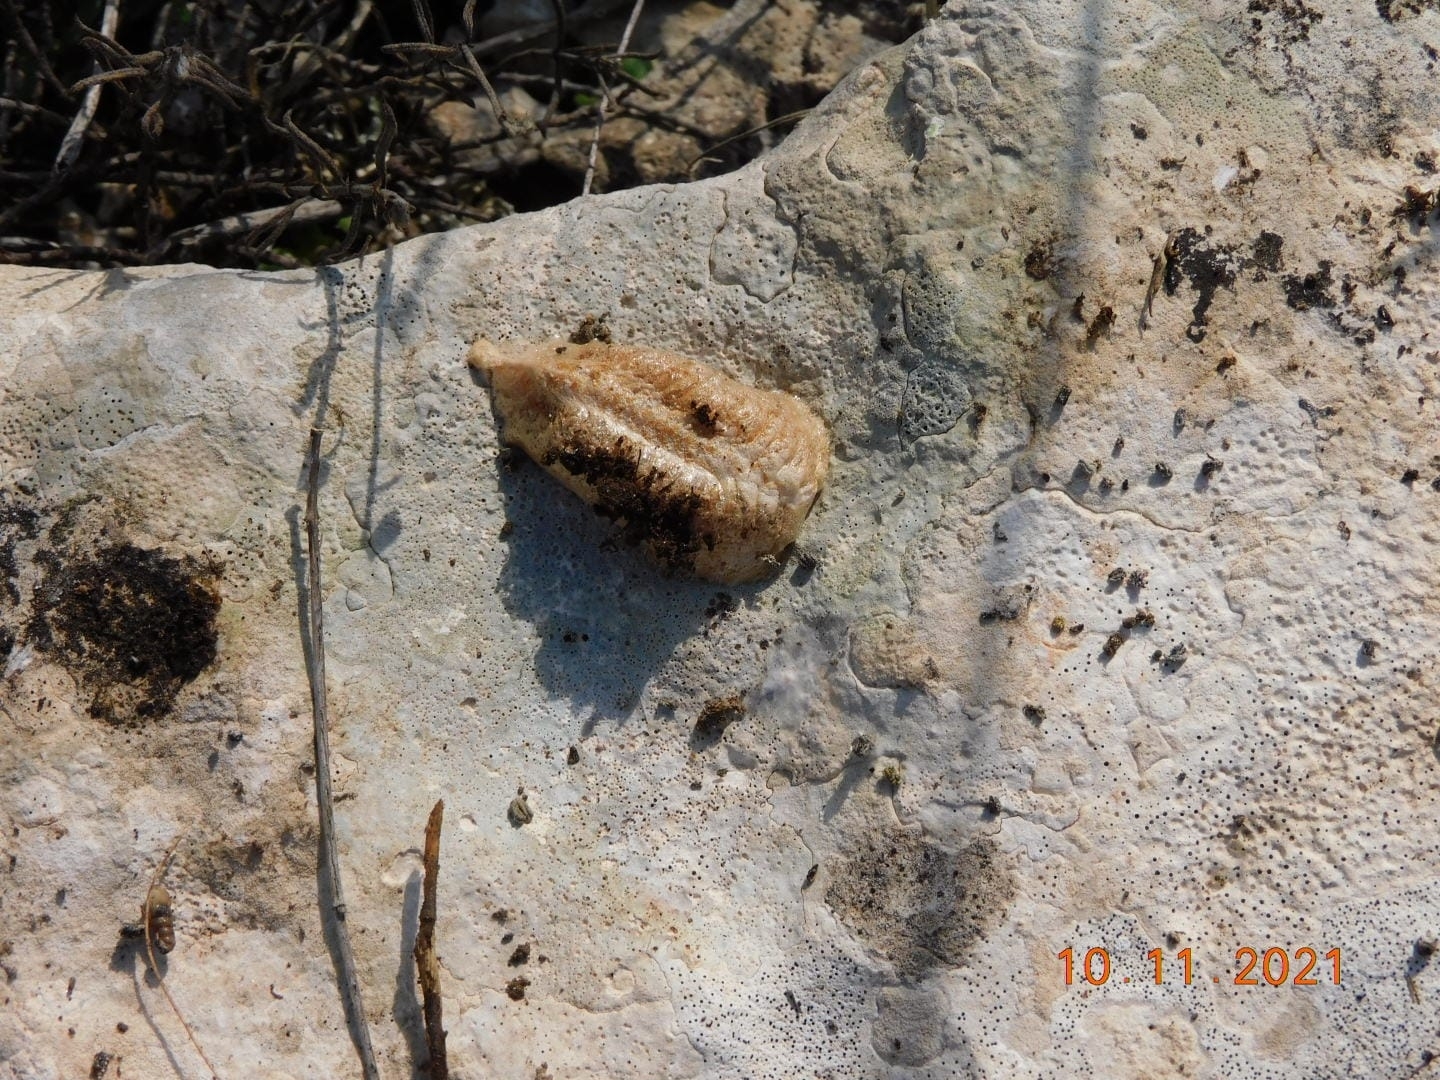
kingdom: Animalia
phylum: Arthropoda
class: Insecta
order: Mantodea
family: Mantidae
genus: Mantis
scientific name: Mantis religiosa
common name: Praying mantis
